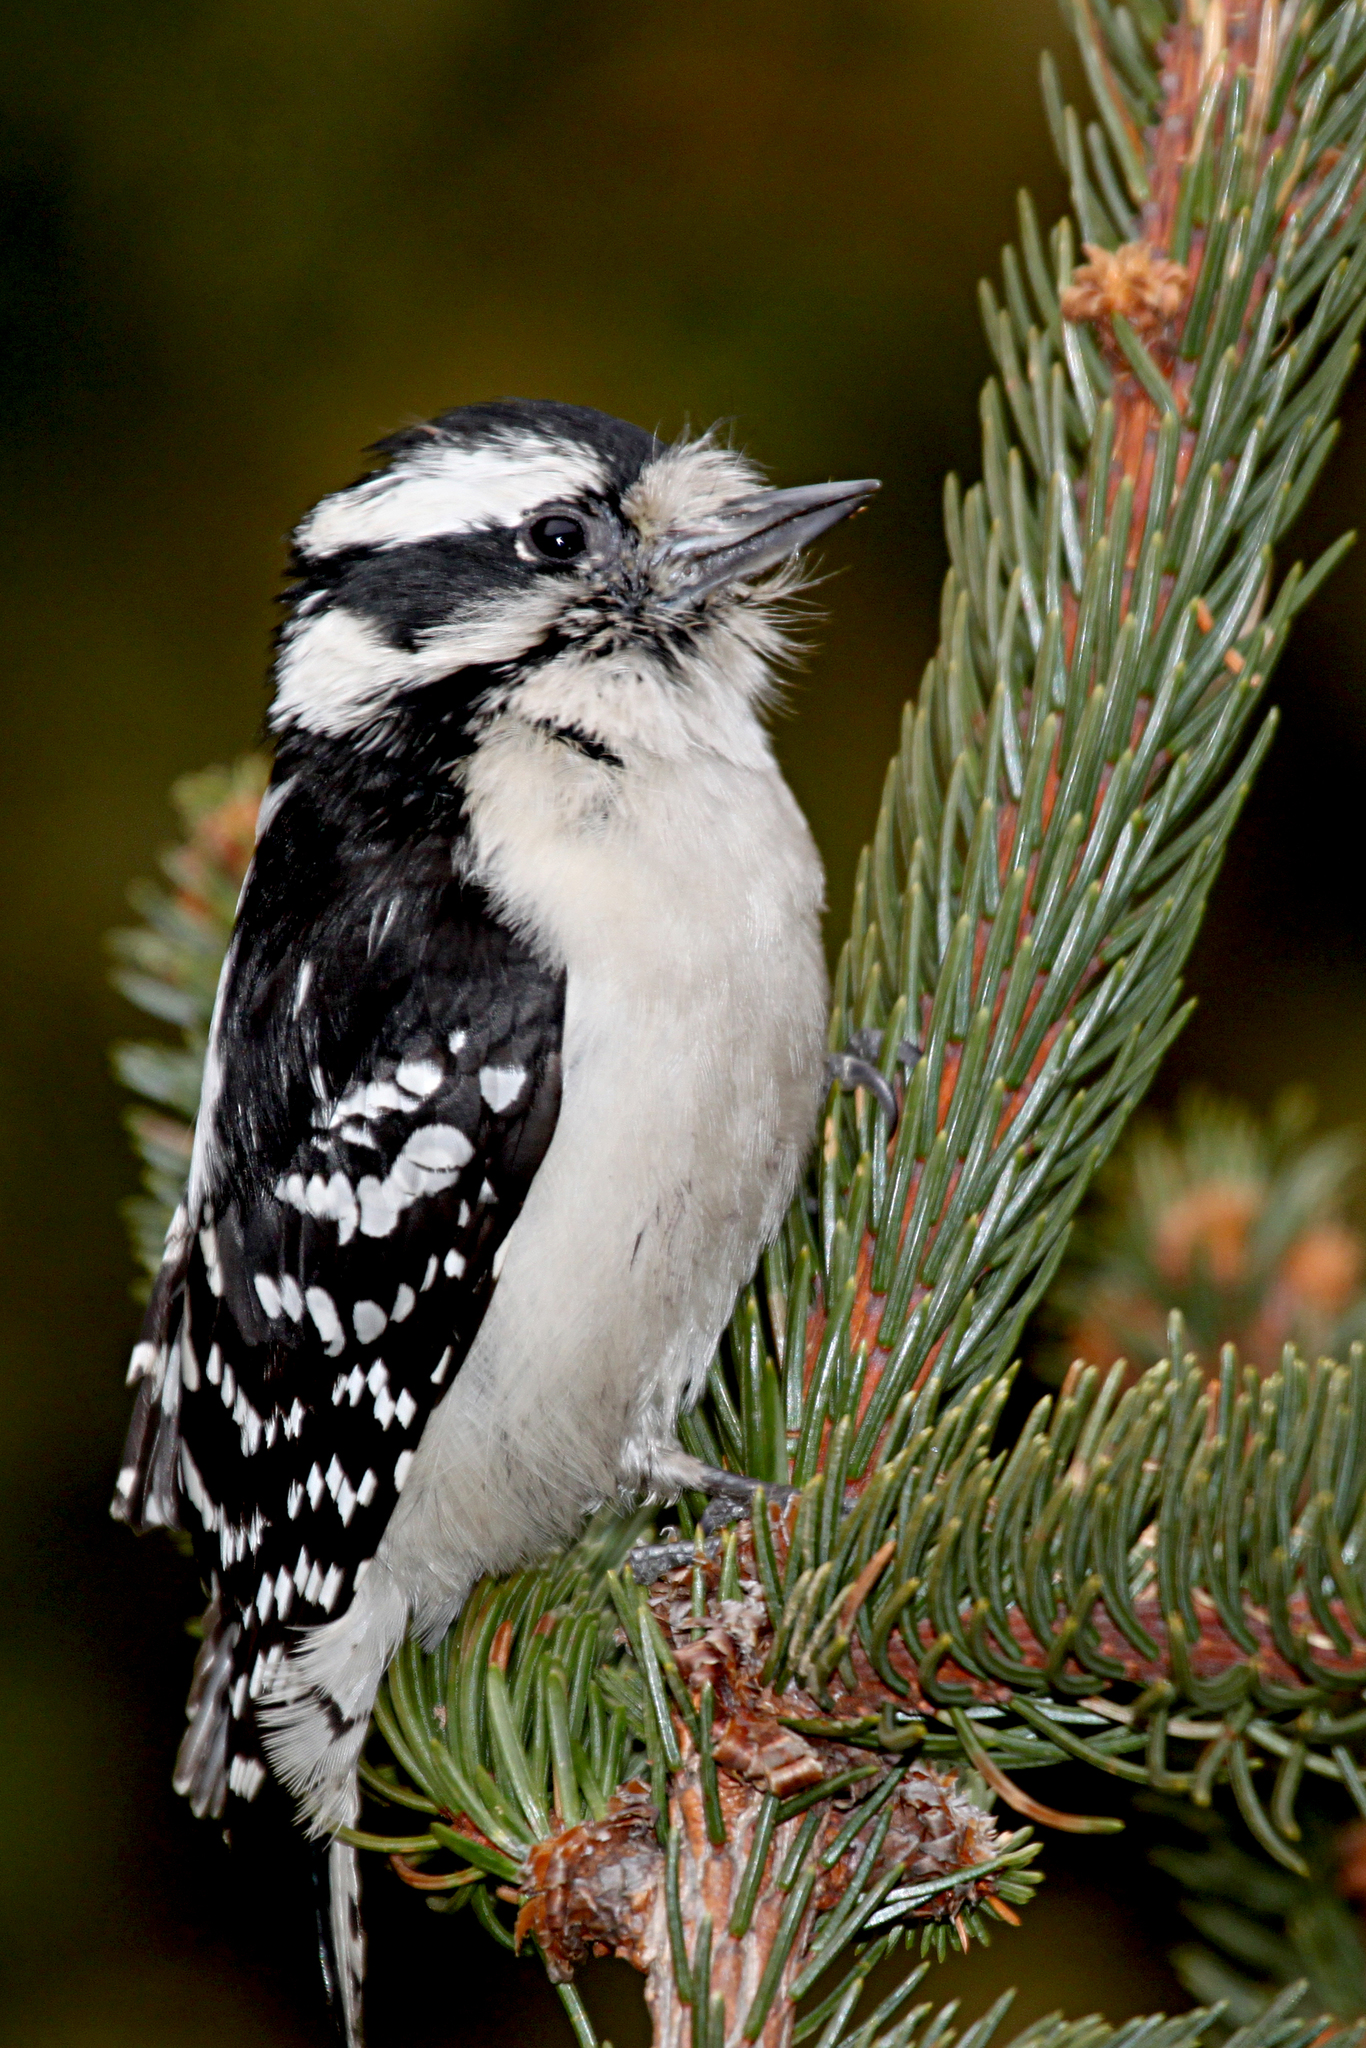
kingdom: Animalia
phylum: Chordata
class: Aves
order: Piciformes
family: Picidae
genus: Dryobates
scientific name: Dryobates pubescens
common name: Downy woodpecker
